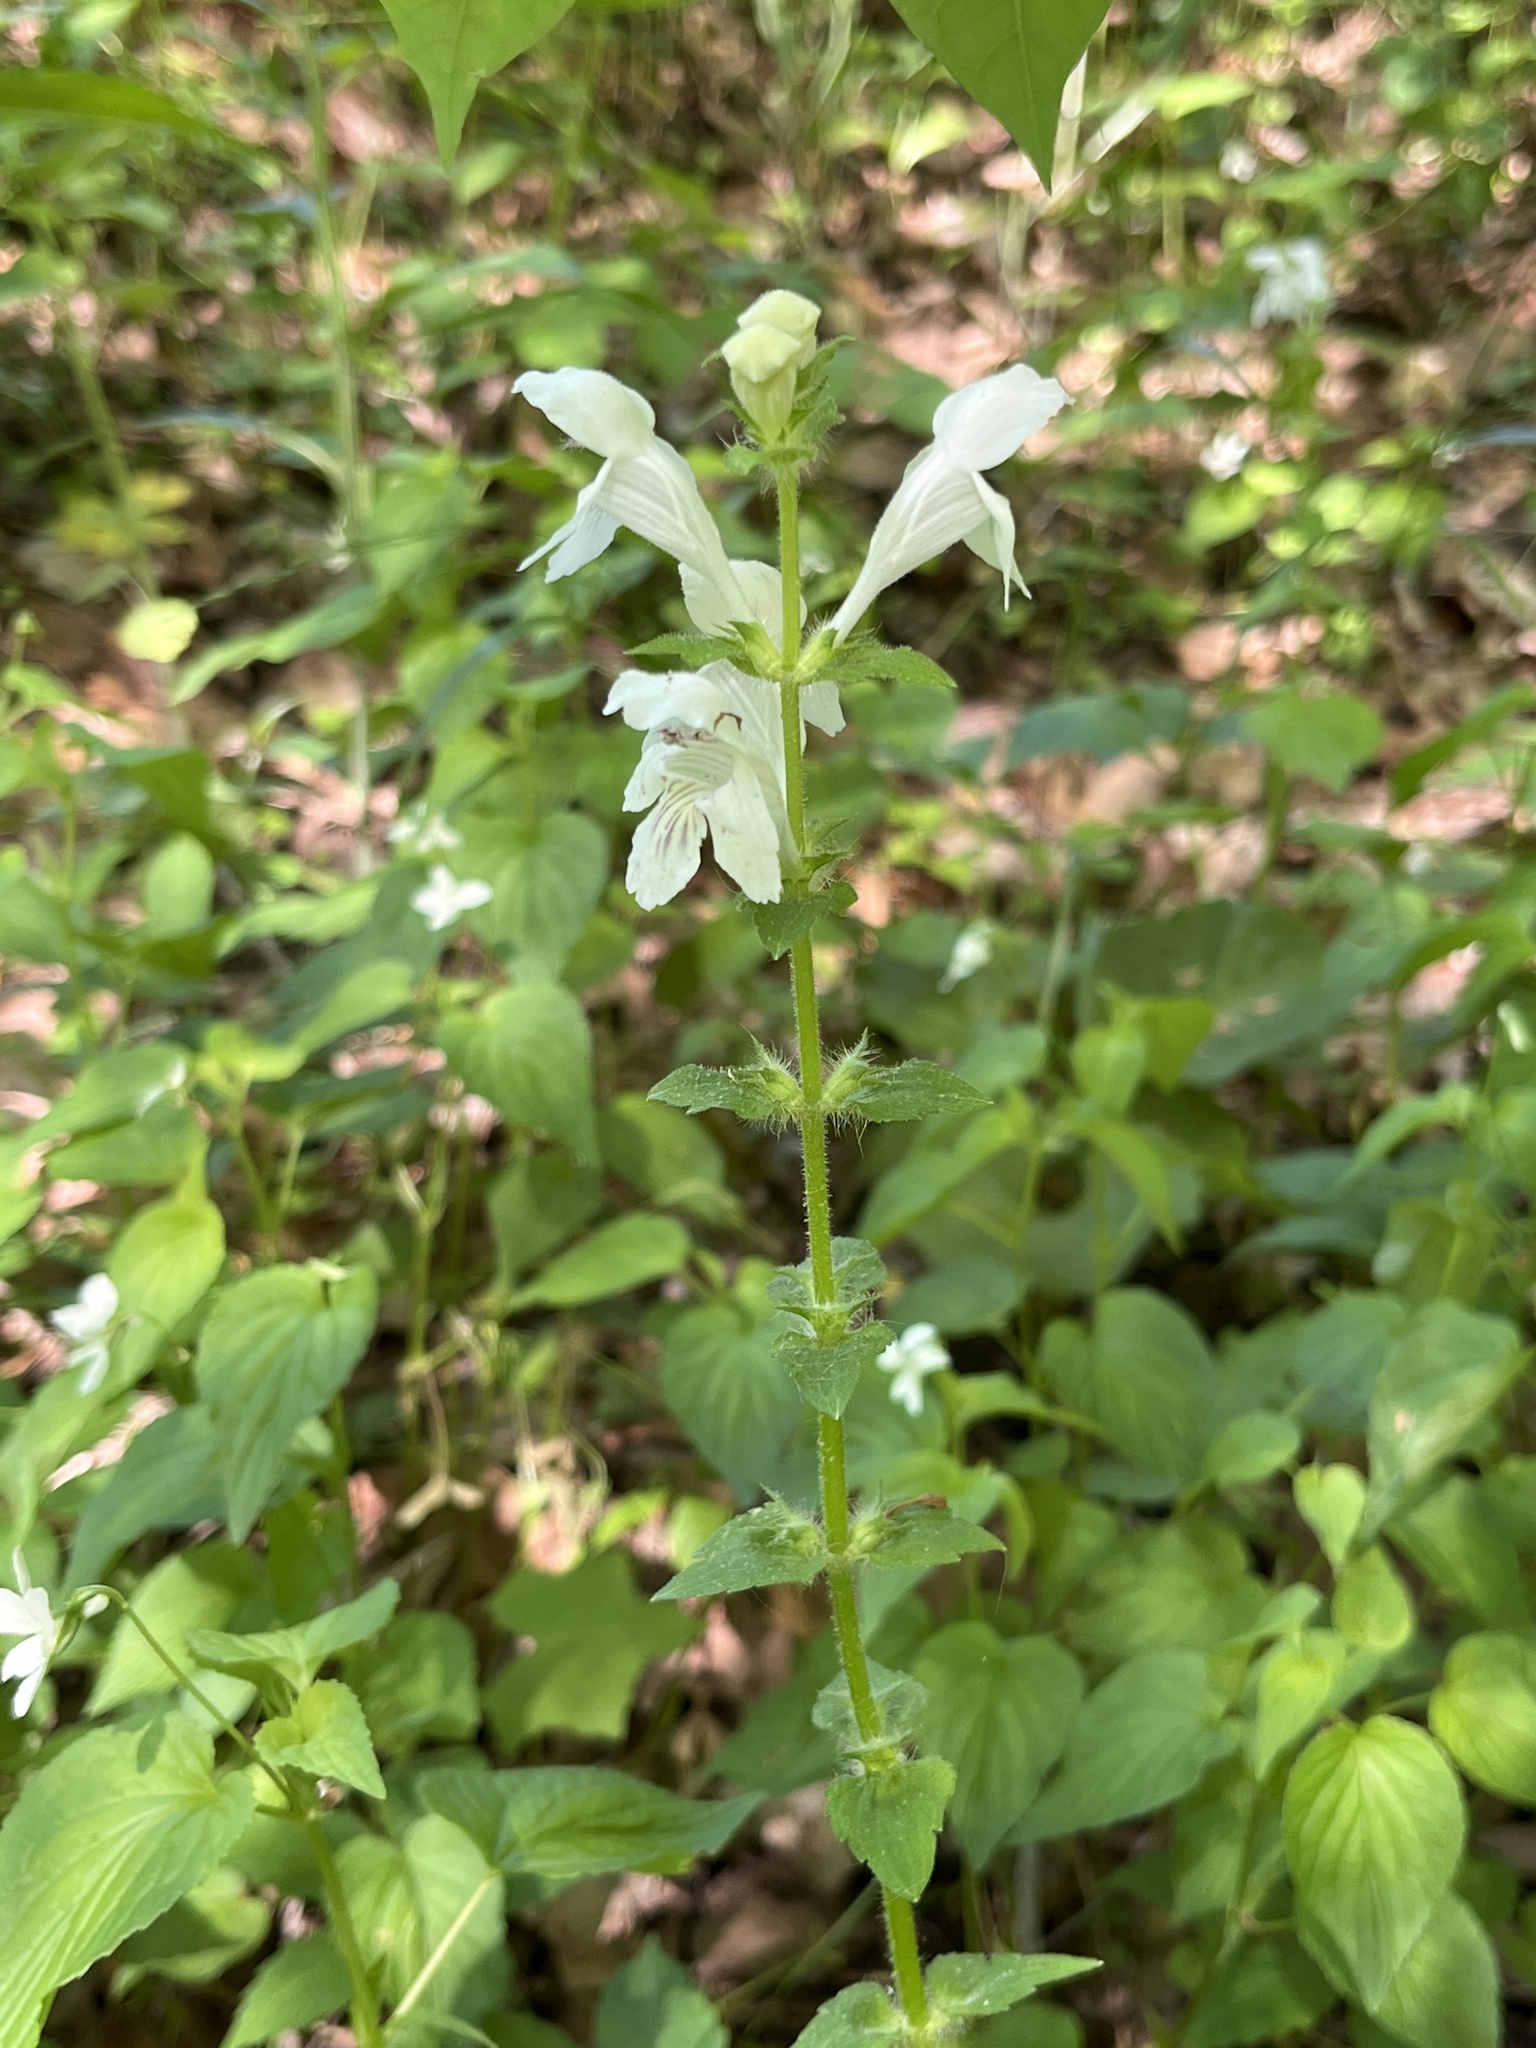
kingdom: Plantae
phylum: Tracheophyta
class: Magnoliopsida
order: Lamiales
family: Lamiaceae
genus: Synandra
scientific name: Synandra hispidula
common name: Synandra
